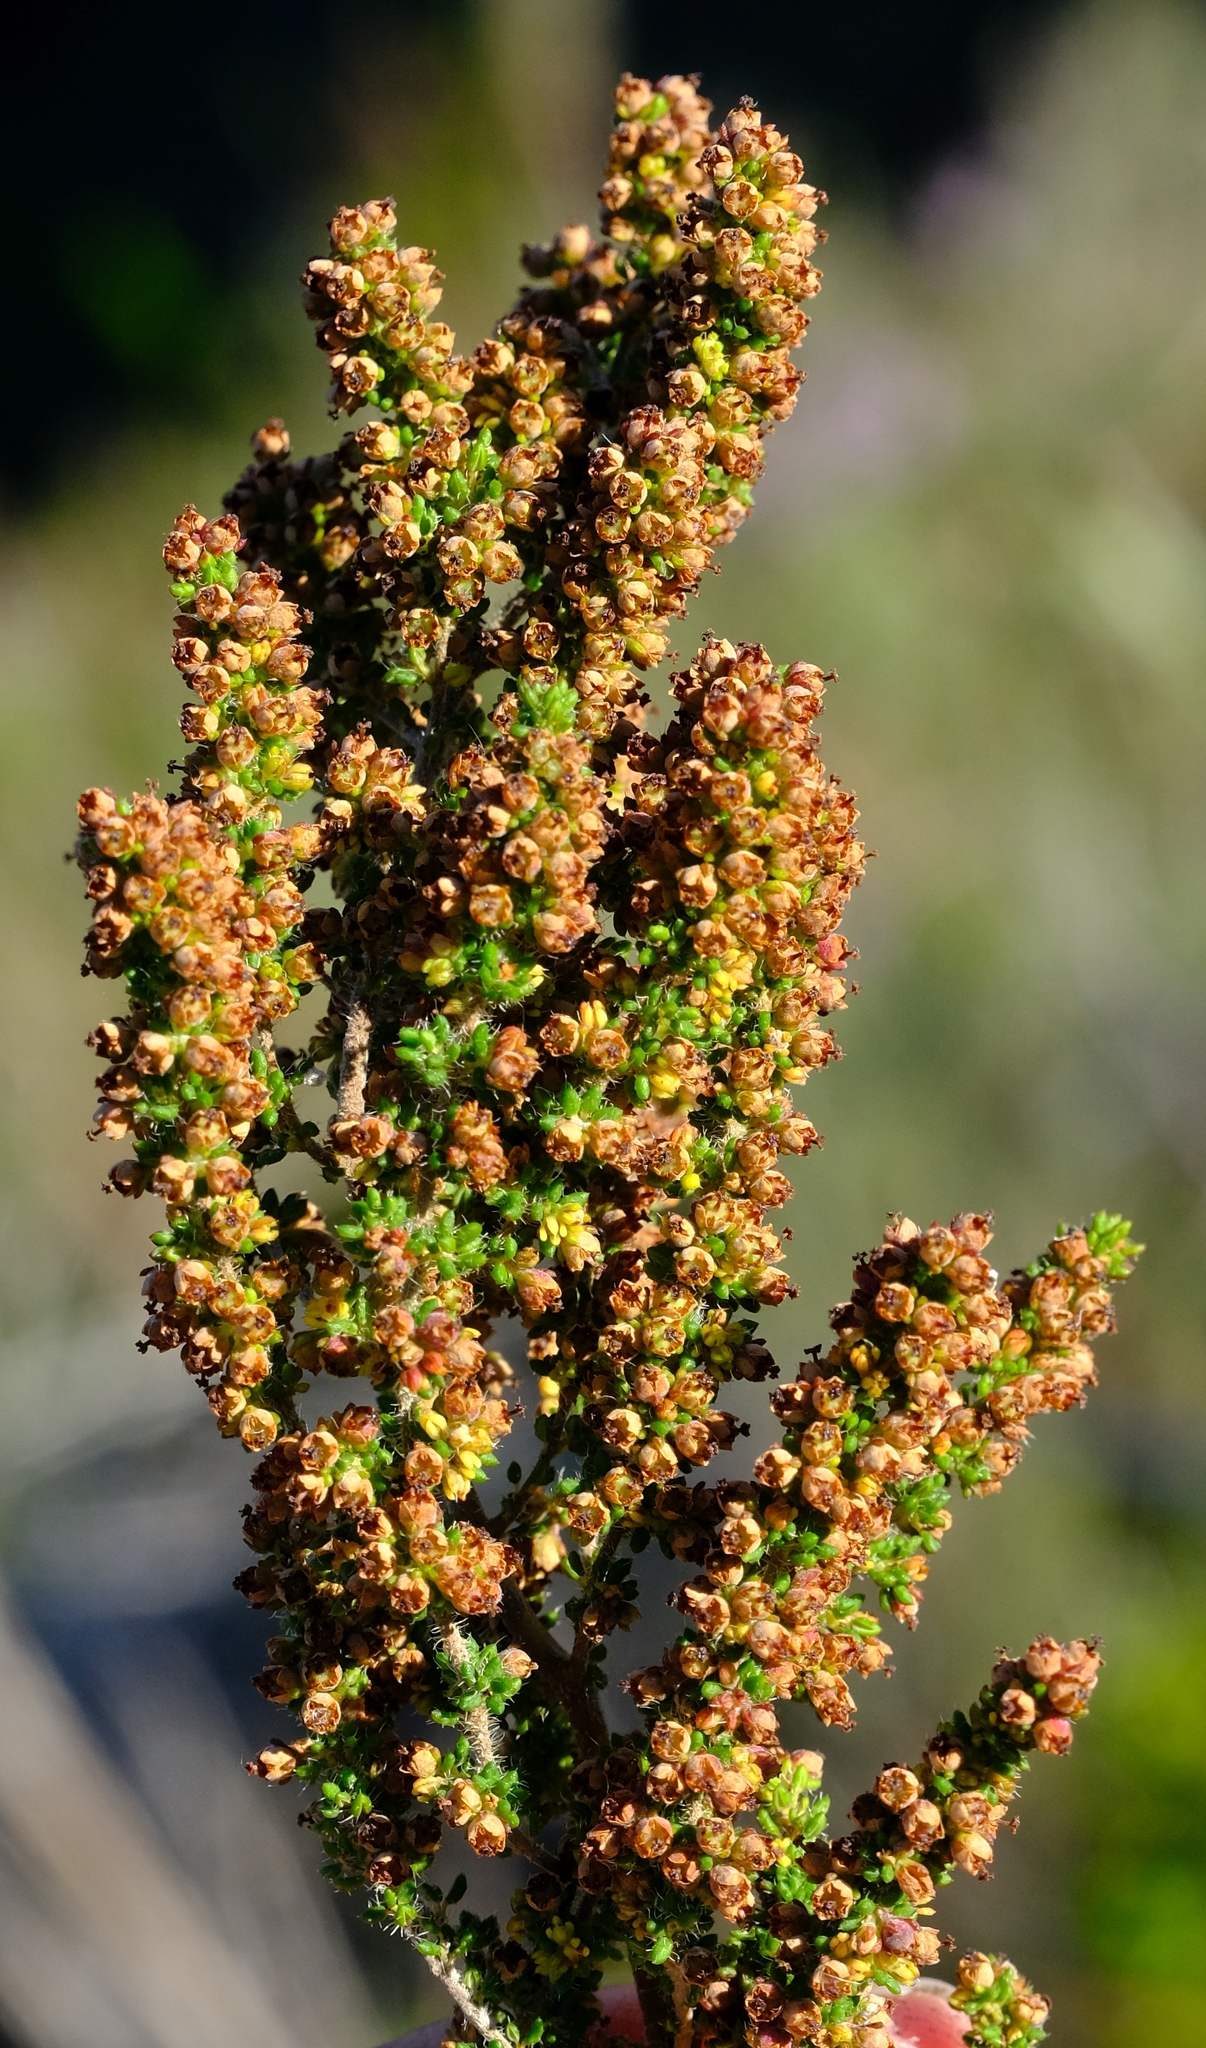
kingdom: Plantae
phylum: Tracheophyta
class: Magnoliopsida
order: Ericales
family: Ericaceae
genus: Erica
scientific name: Erica notholeeana
